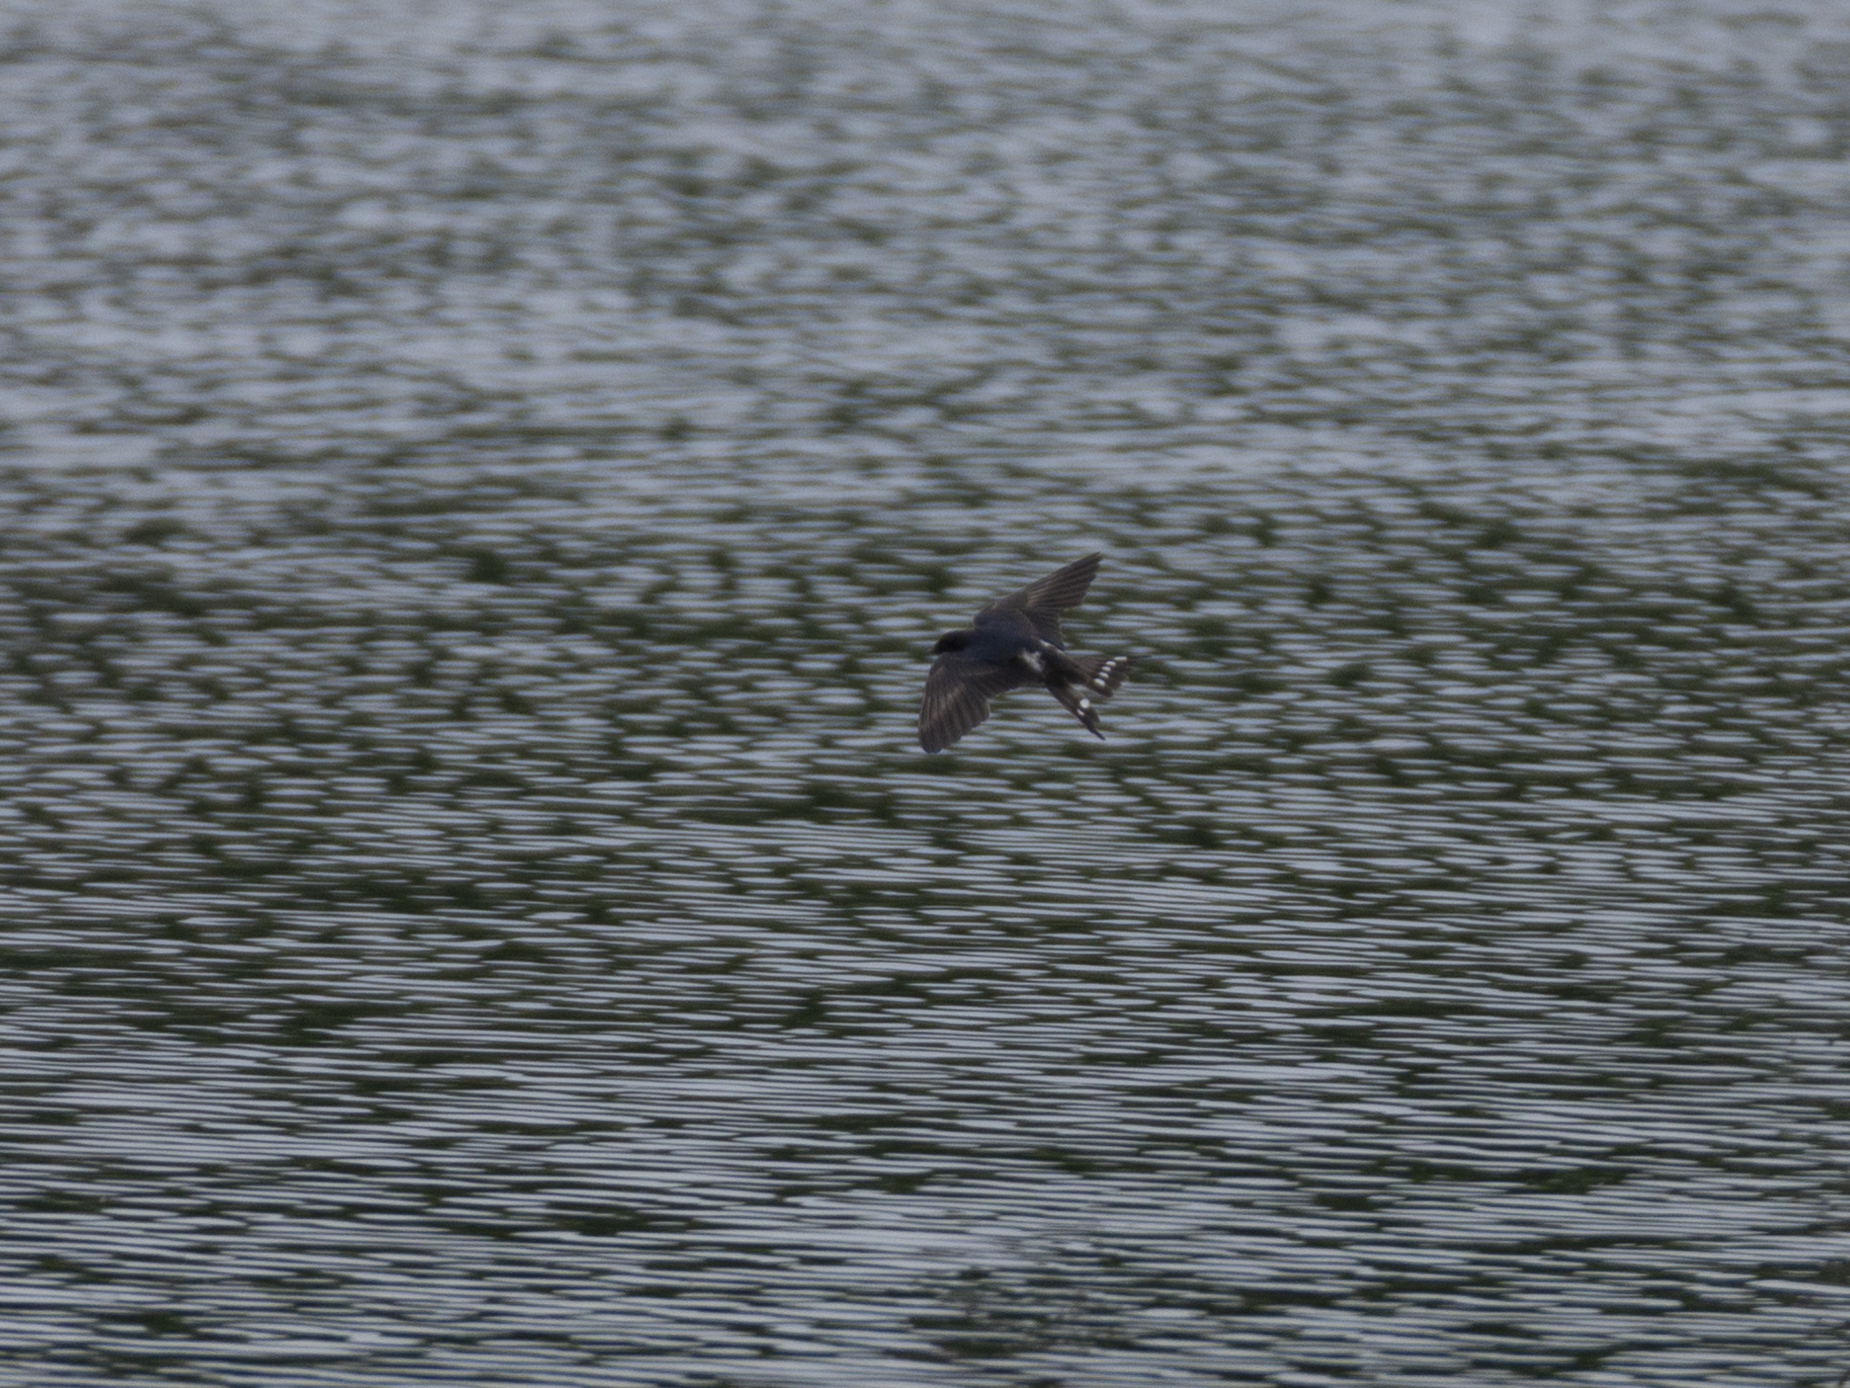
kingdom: Animalia
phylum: Chordata
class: Aves
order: Passeriformes
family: Hirundinidae
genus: Hirundo
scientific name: Hirundo rustica
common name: Barn swallow
